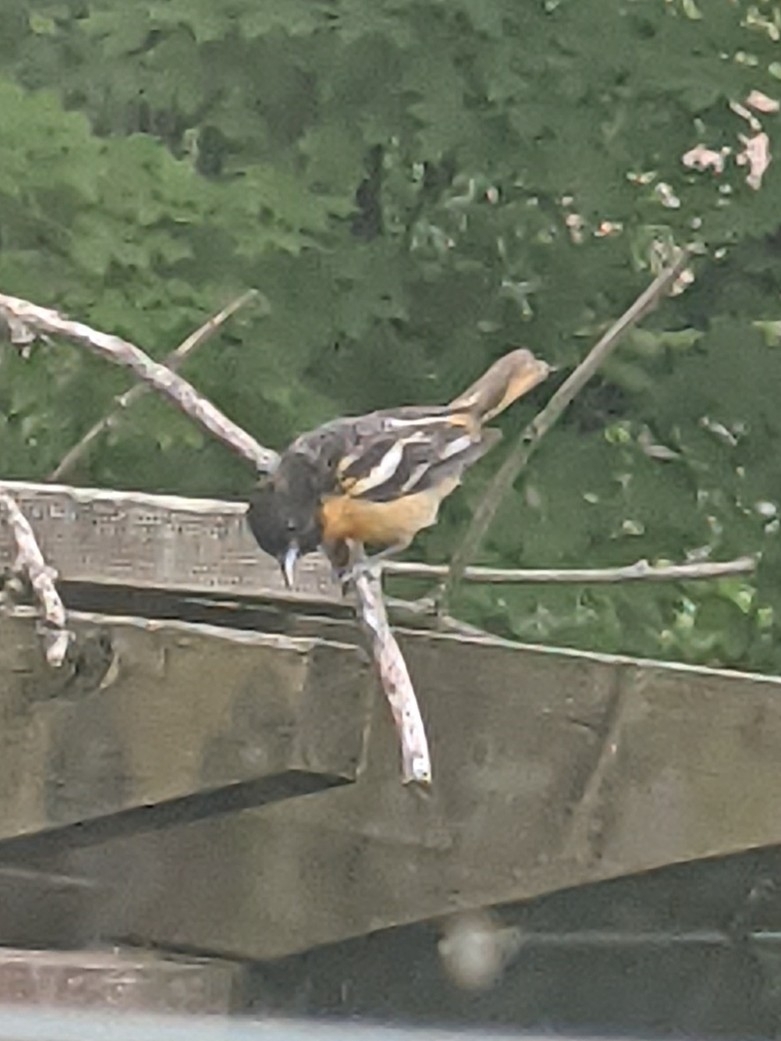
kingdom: Animalia
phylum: Chordata
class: Aves
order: Passeriformes
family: Icteridae
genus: Icterus
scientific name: Icterus galbula
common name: Baltimore oriole
